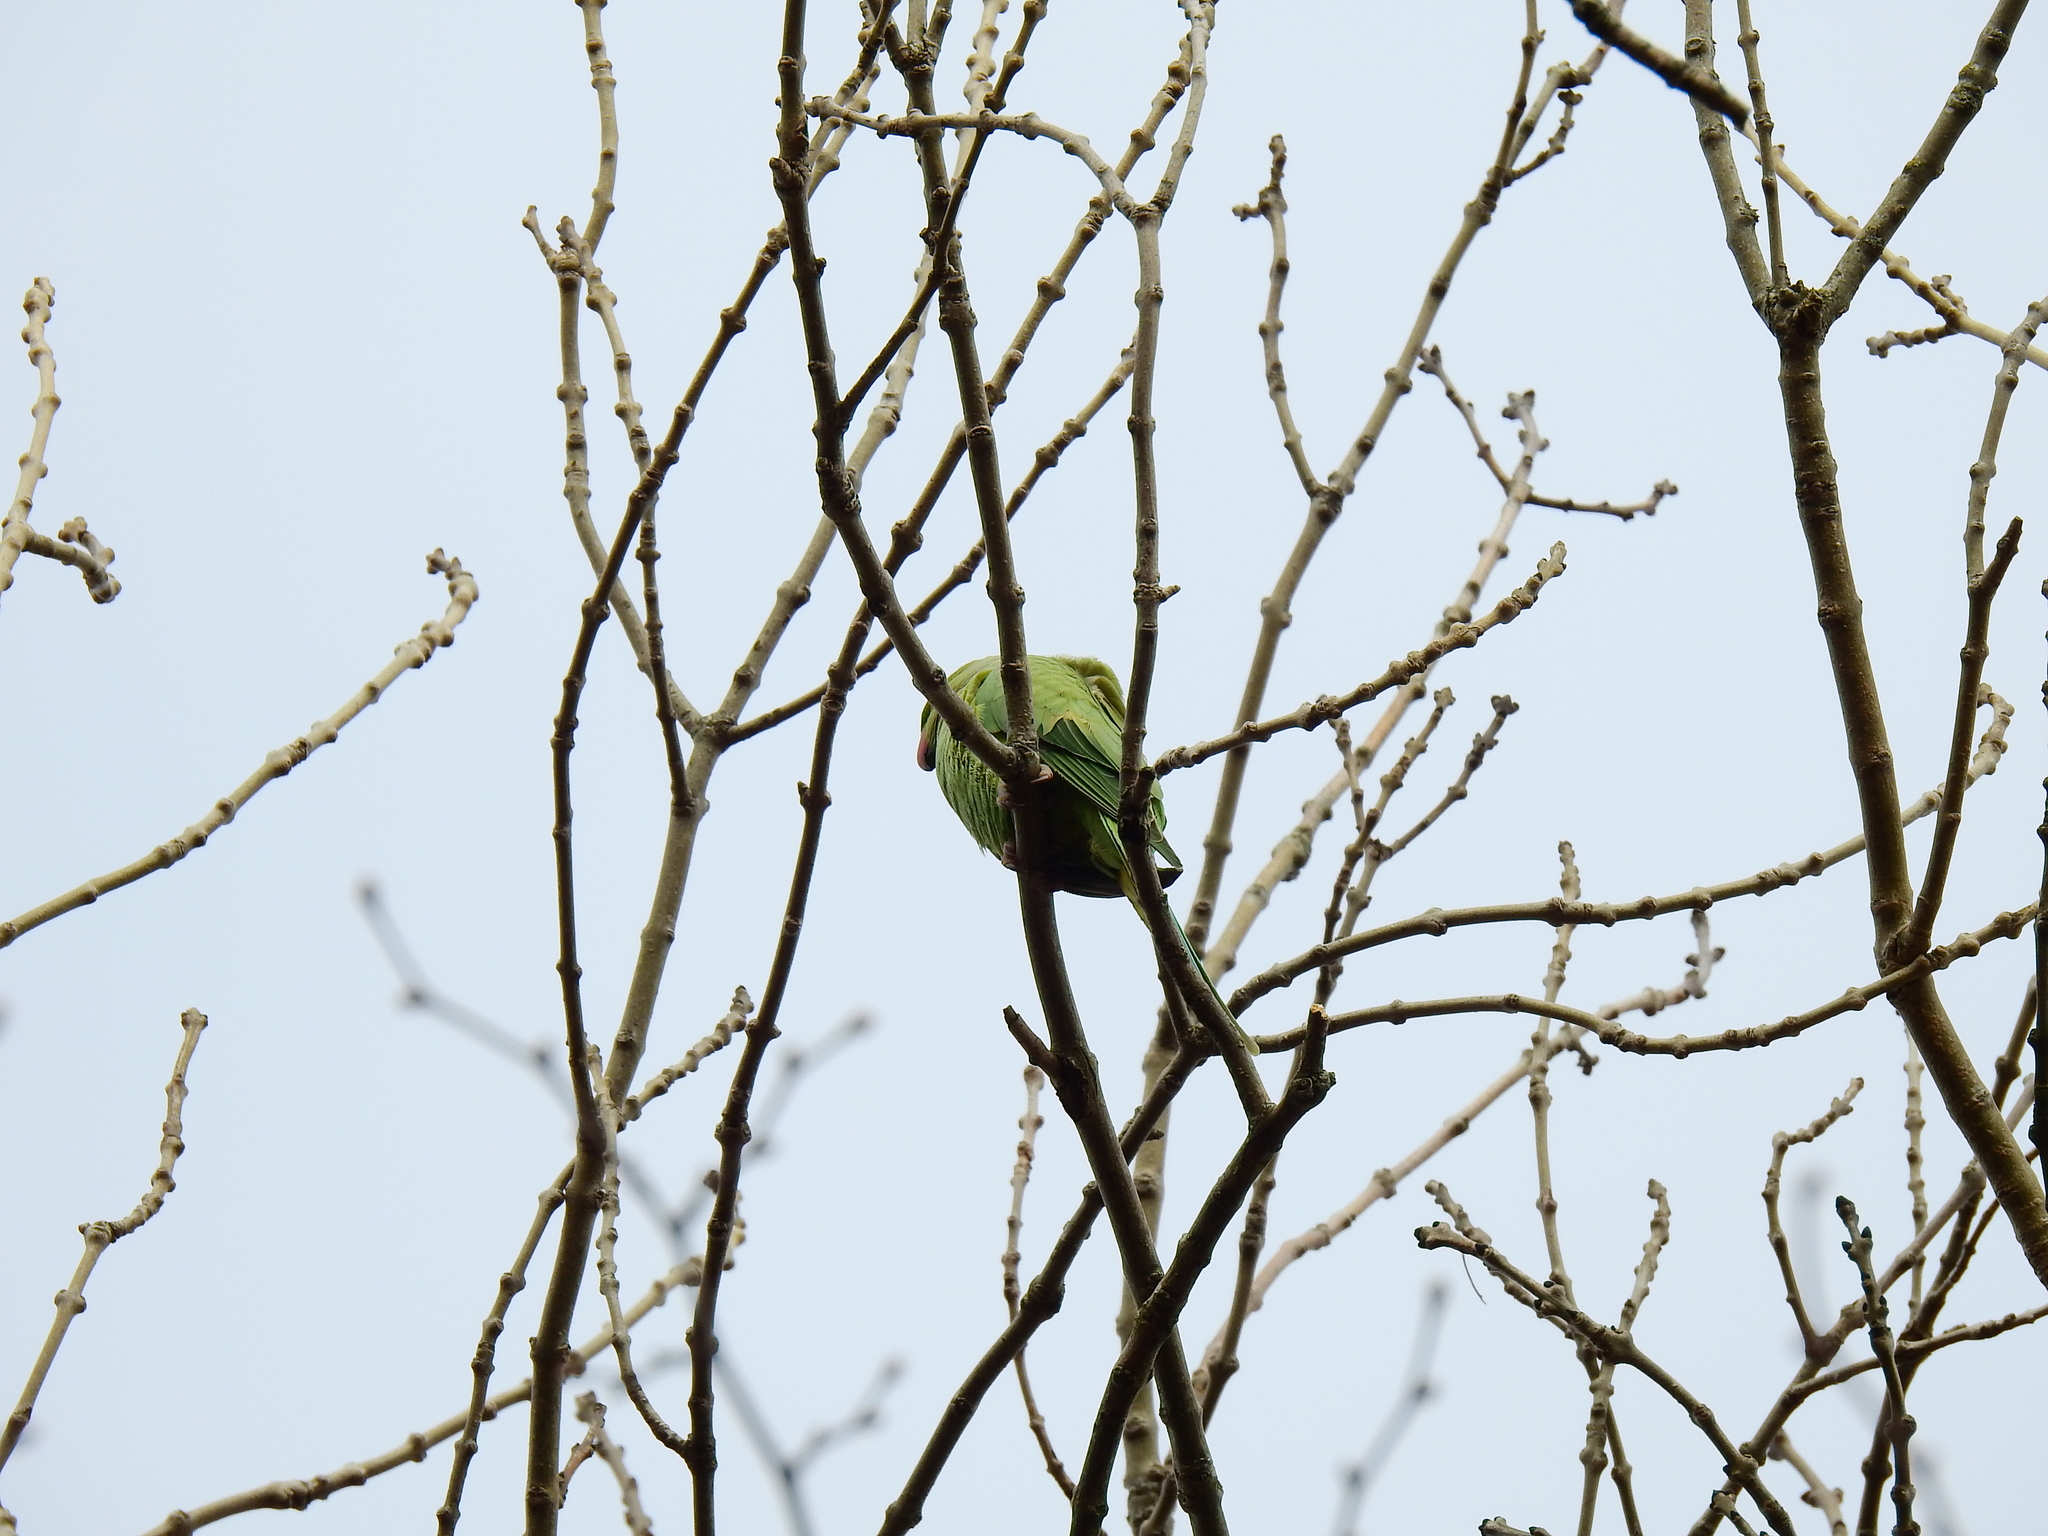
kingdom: Animalia
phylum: Chordata
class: Aves
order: Psittaciformes
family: Psittacidae
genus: Psittacula
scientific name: Psittacula krameri
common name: Rose-ringed parakeet
